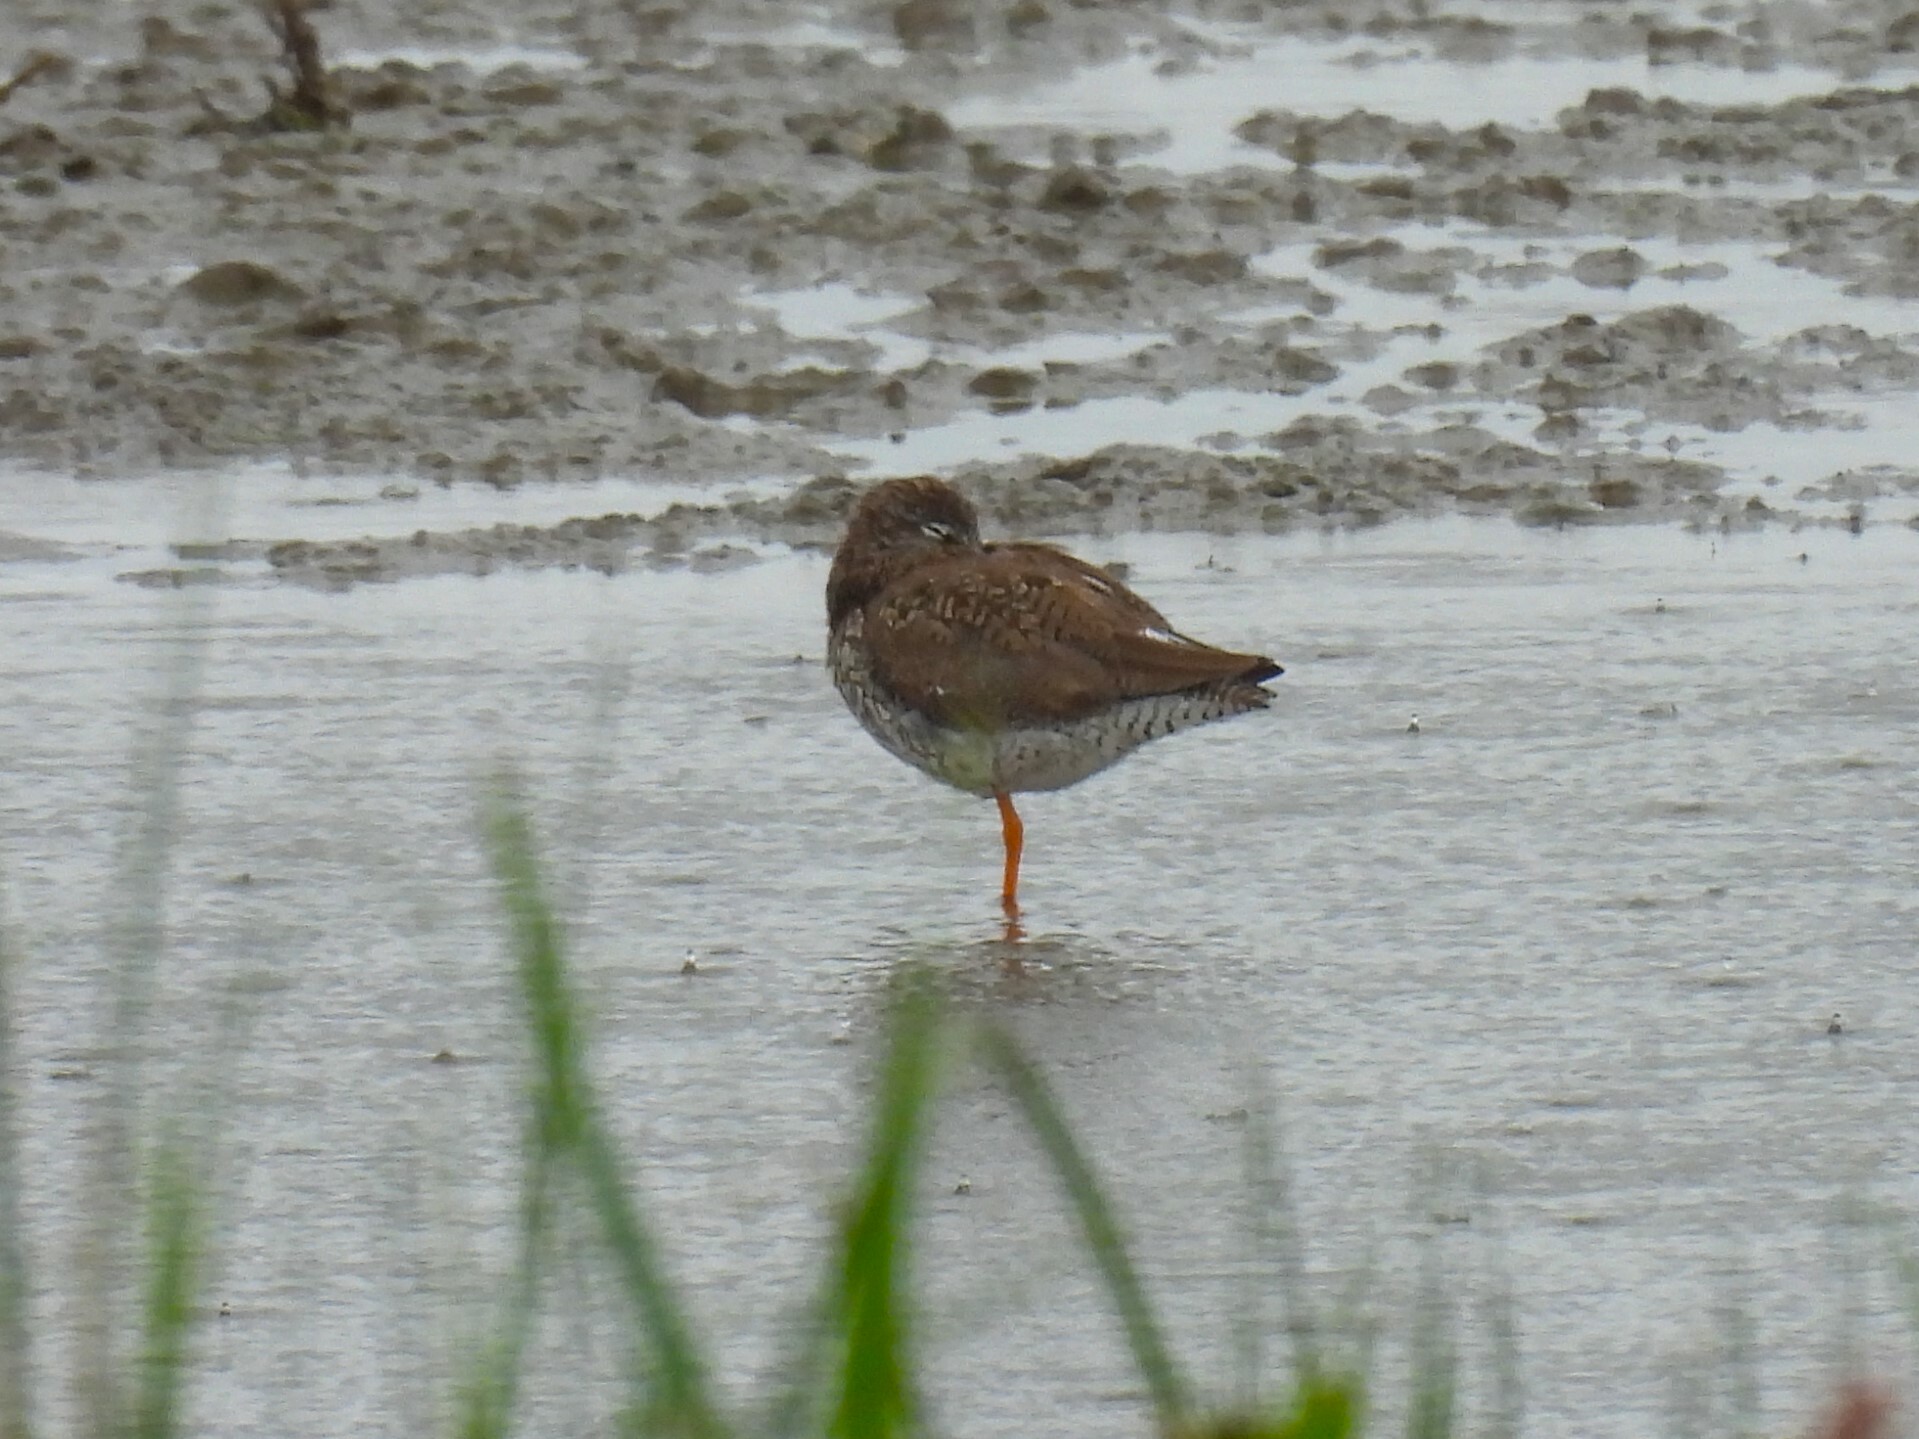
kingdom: Animalia
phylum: Chordata
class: Aves
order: Charadriiformes
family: Scolopacidae
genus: Tringa
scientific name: Tringa totanus
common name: Common redshank
